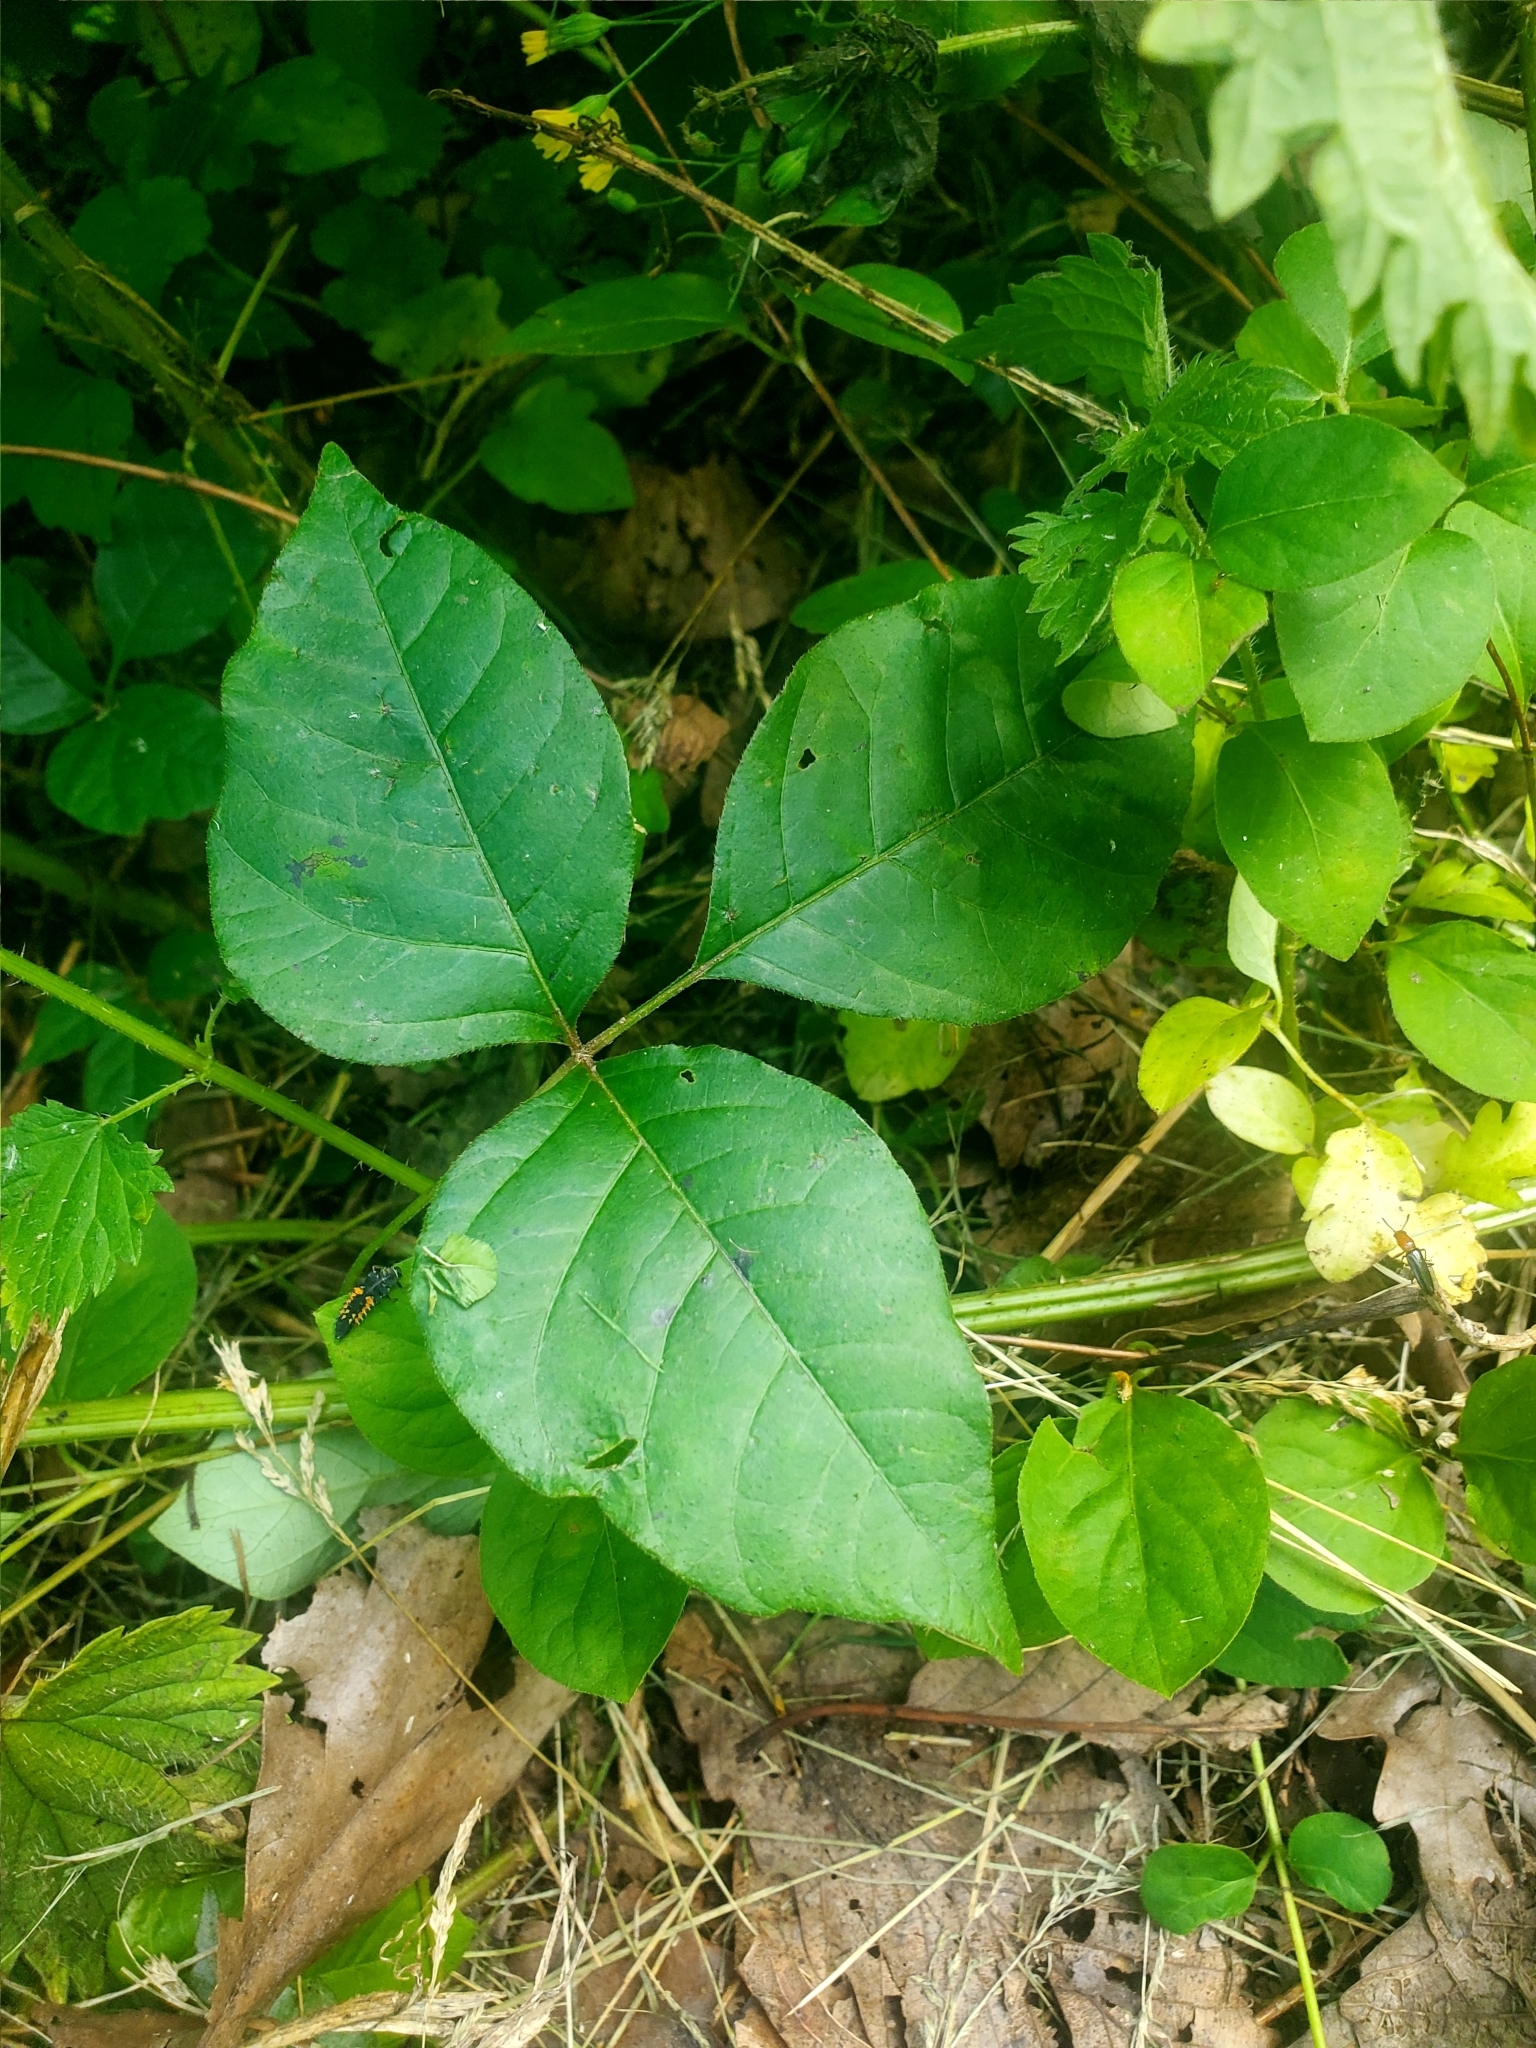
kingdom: Plantae
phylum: Tracheophyta
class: Magnoliopsida
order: Sapindales
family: Anacardiaceae
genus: Toxicodendron
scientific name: Toxicodendron radicans
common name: Poison ivy
